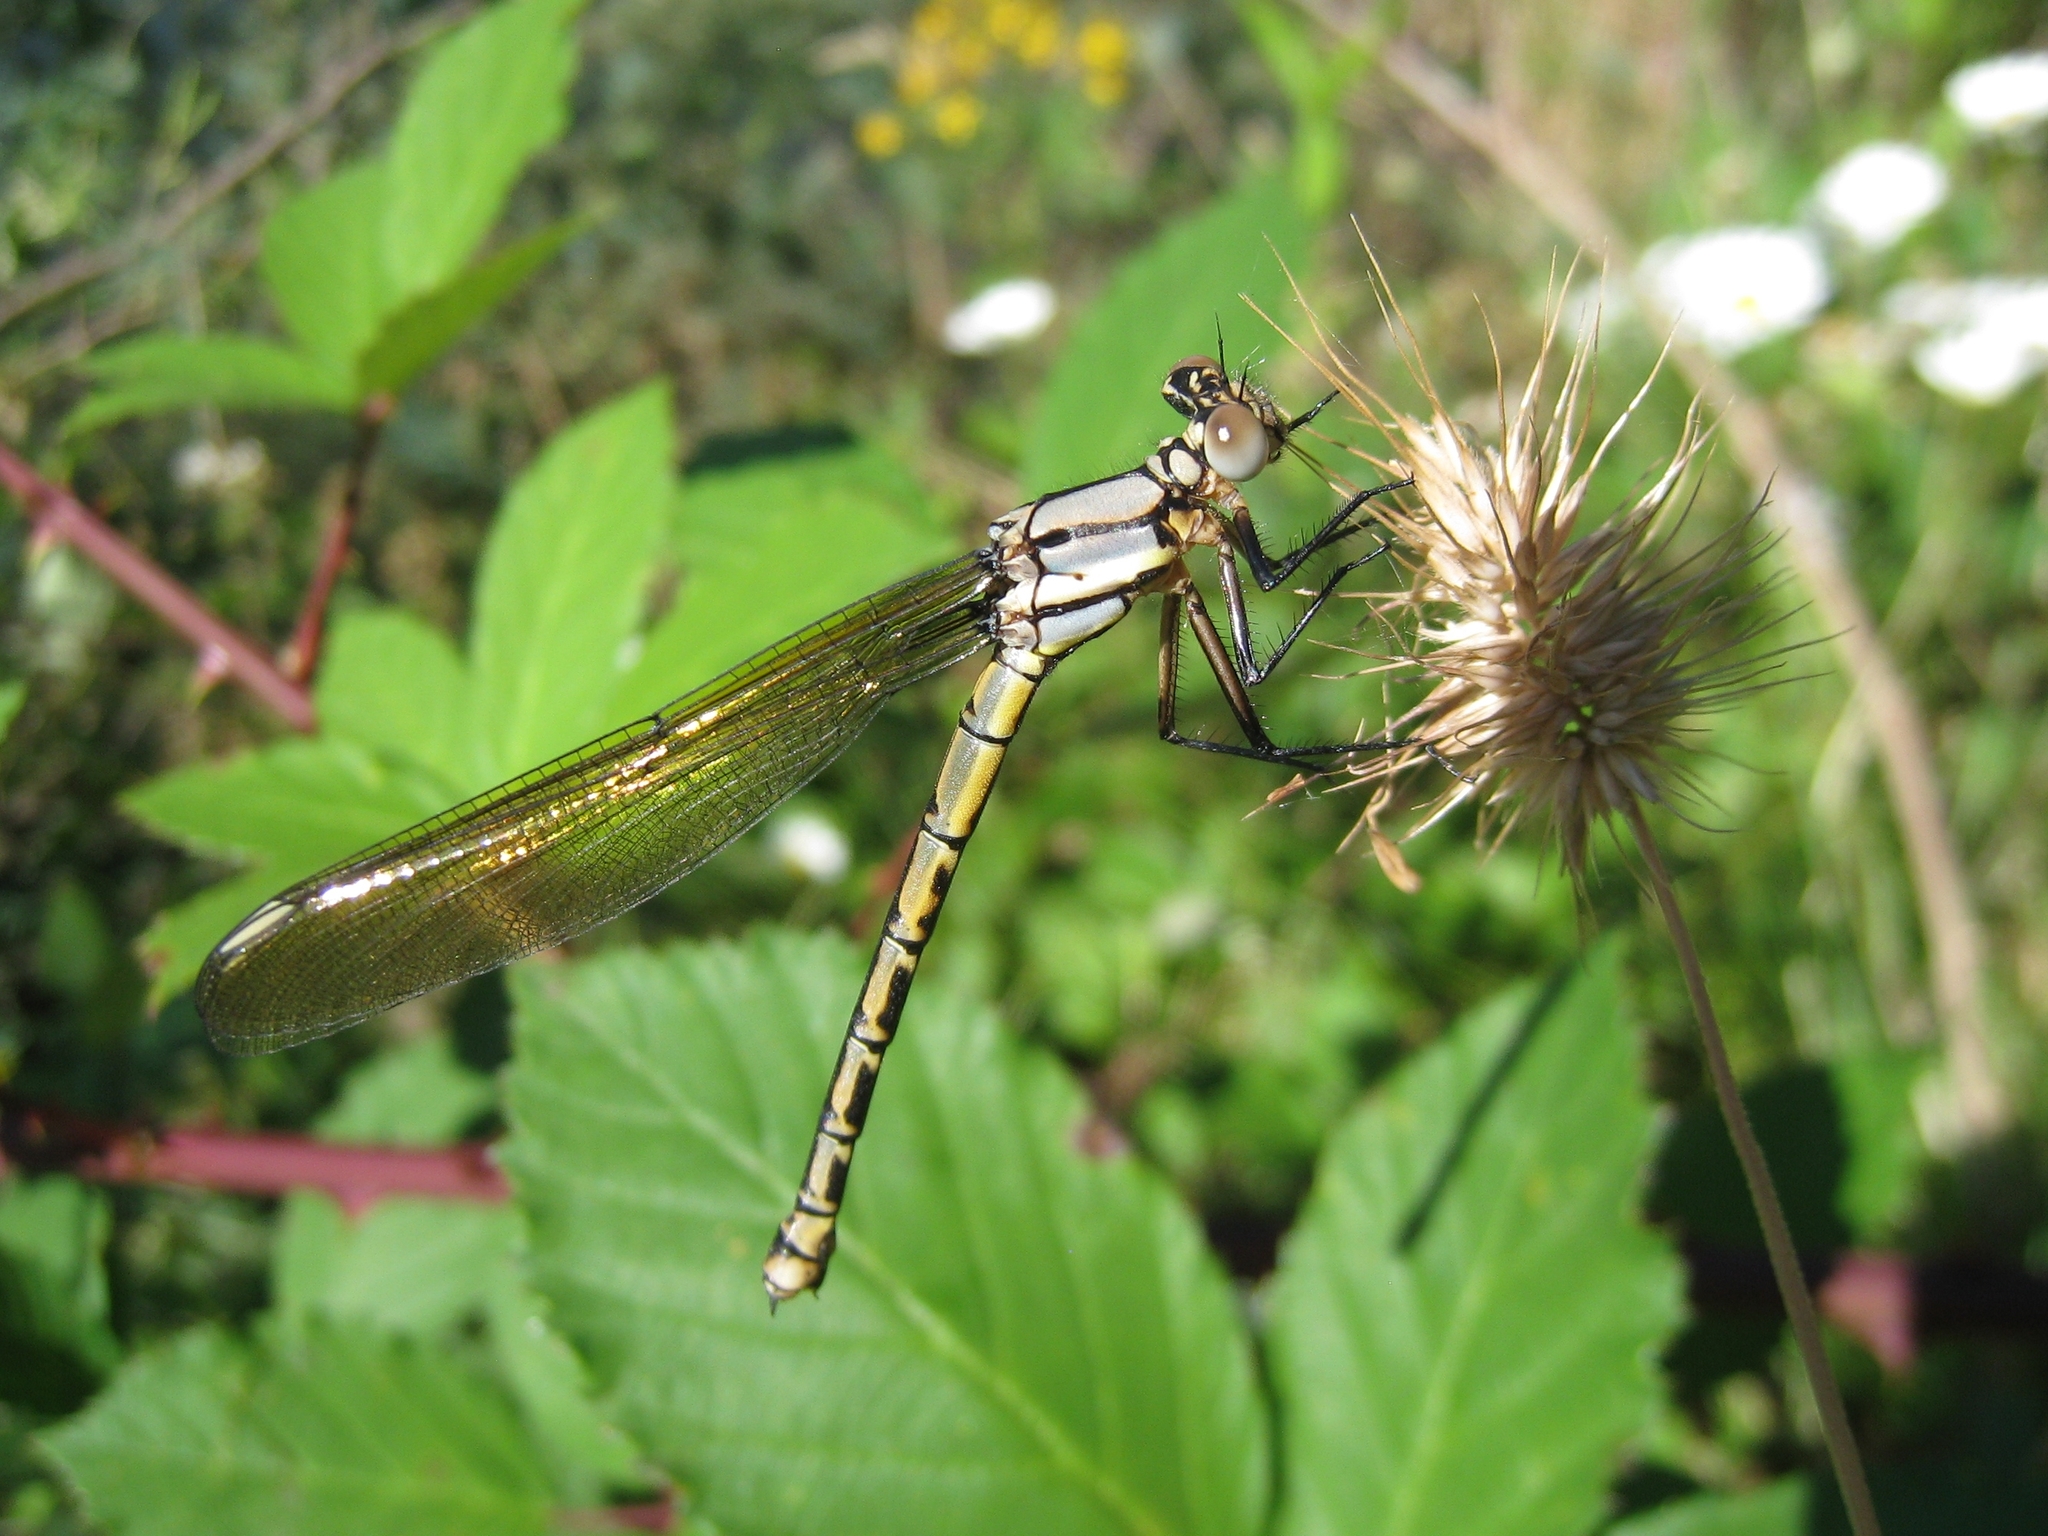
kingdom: Animalia
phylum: Arthropoda
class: Insecta
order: Odonata
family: Lestoideidae
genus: Diphlebia
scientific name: Diphlebia nymphoides
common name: Arrowhead rockmaster
